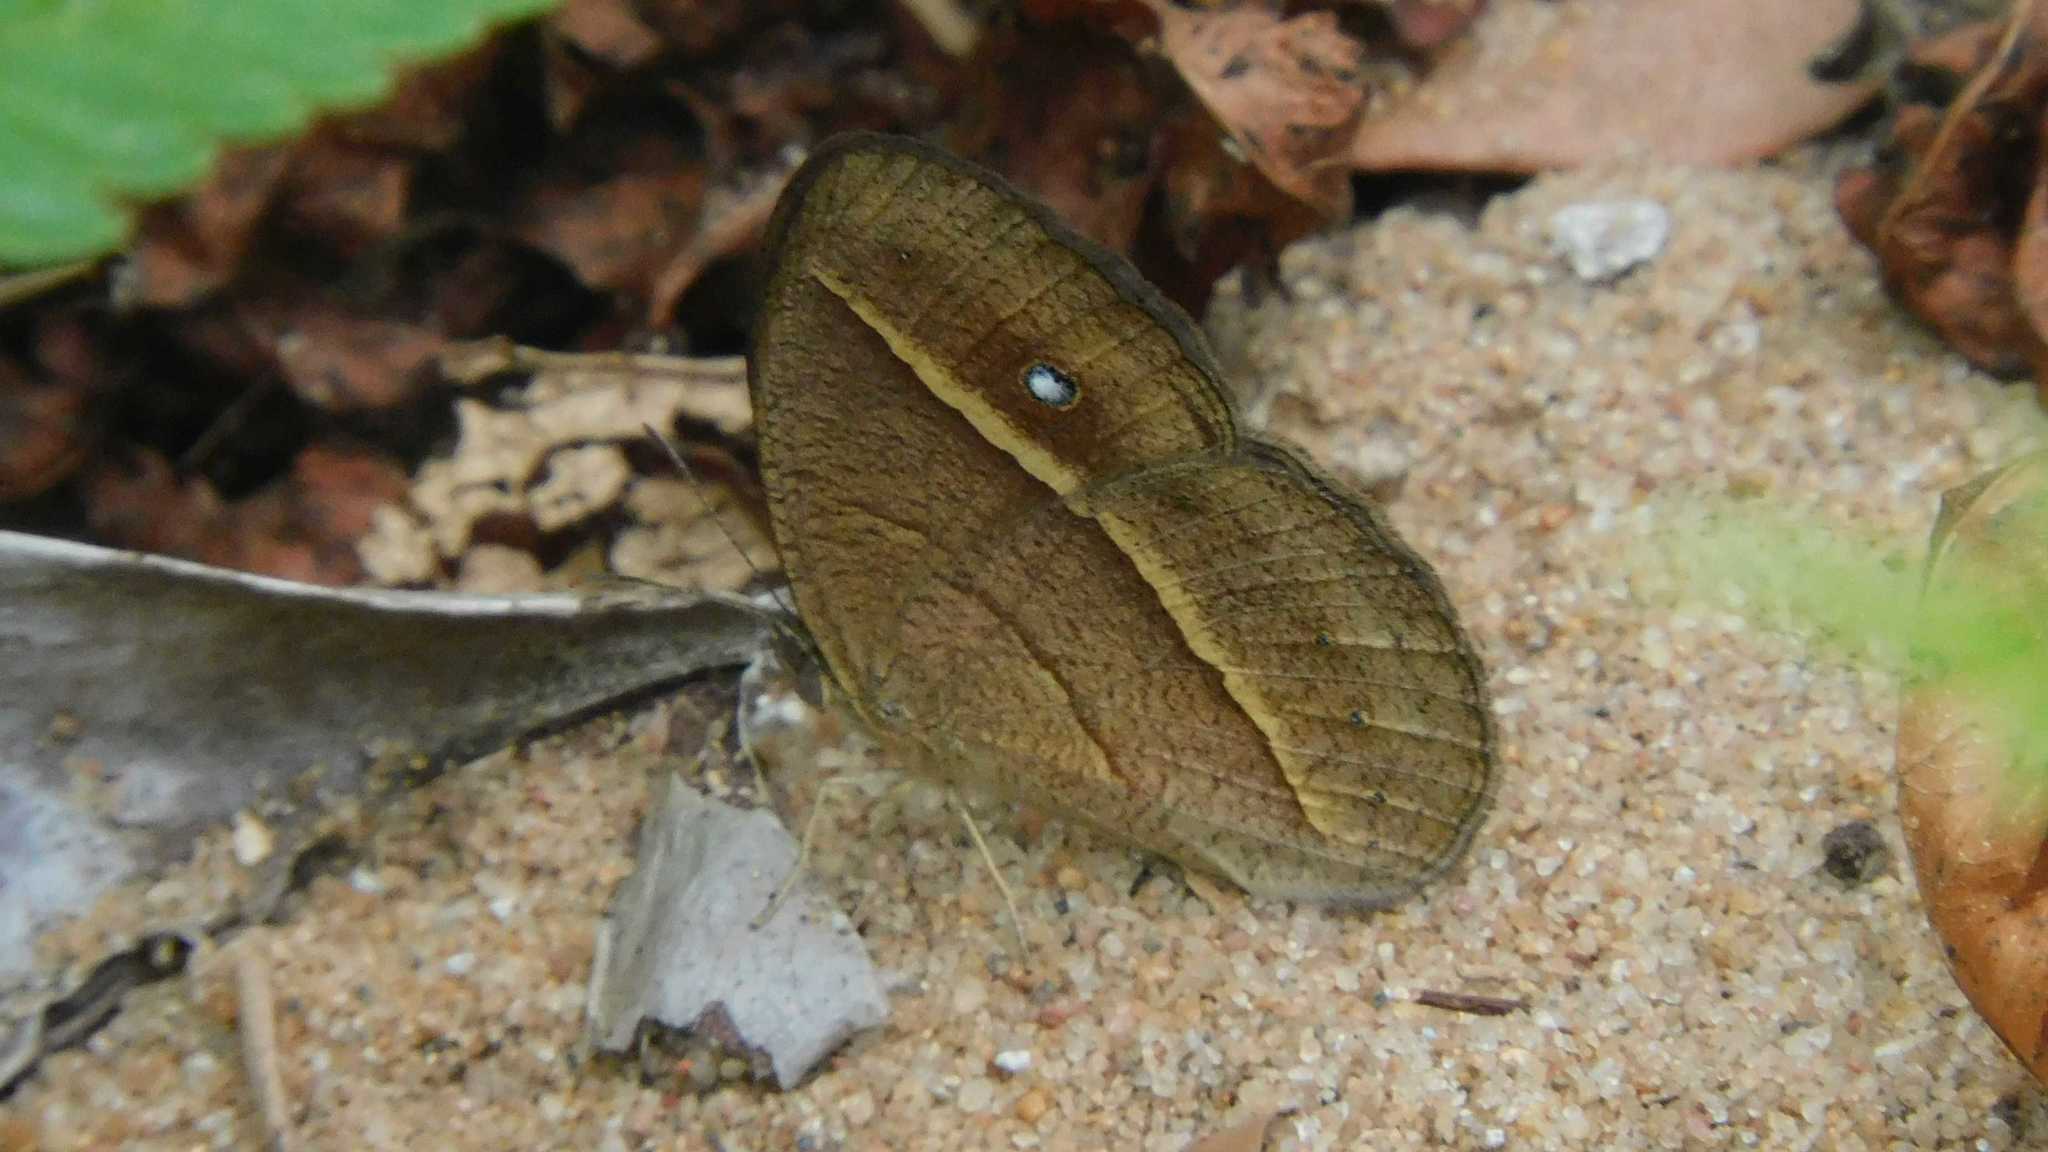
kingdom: Animalia
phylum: Arthropoda
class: Insecta
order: Lepidoptera
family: Nymphalidae
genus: Heteropsis
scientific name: Heteropsis perspicua
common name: Eyed bush brown
